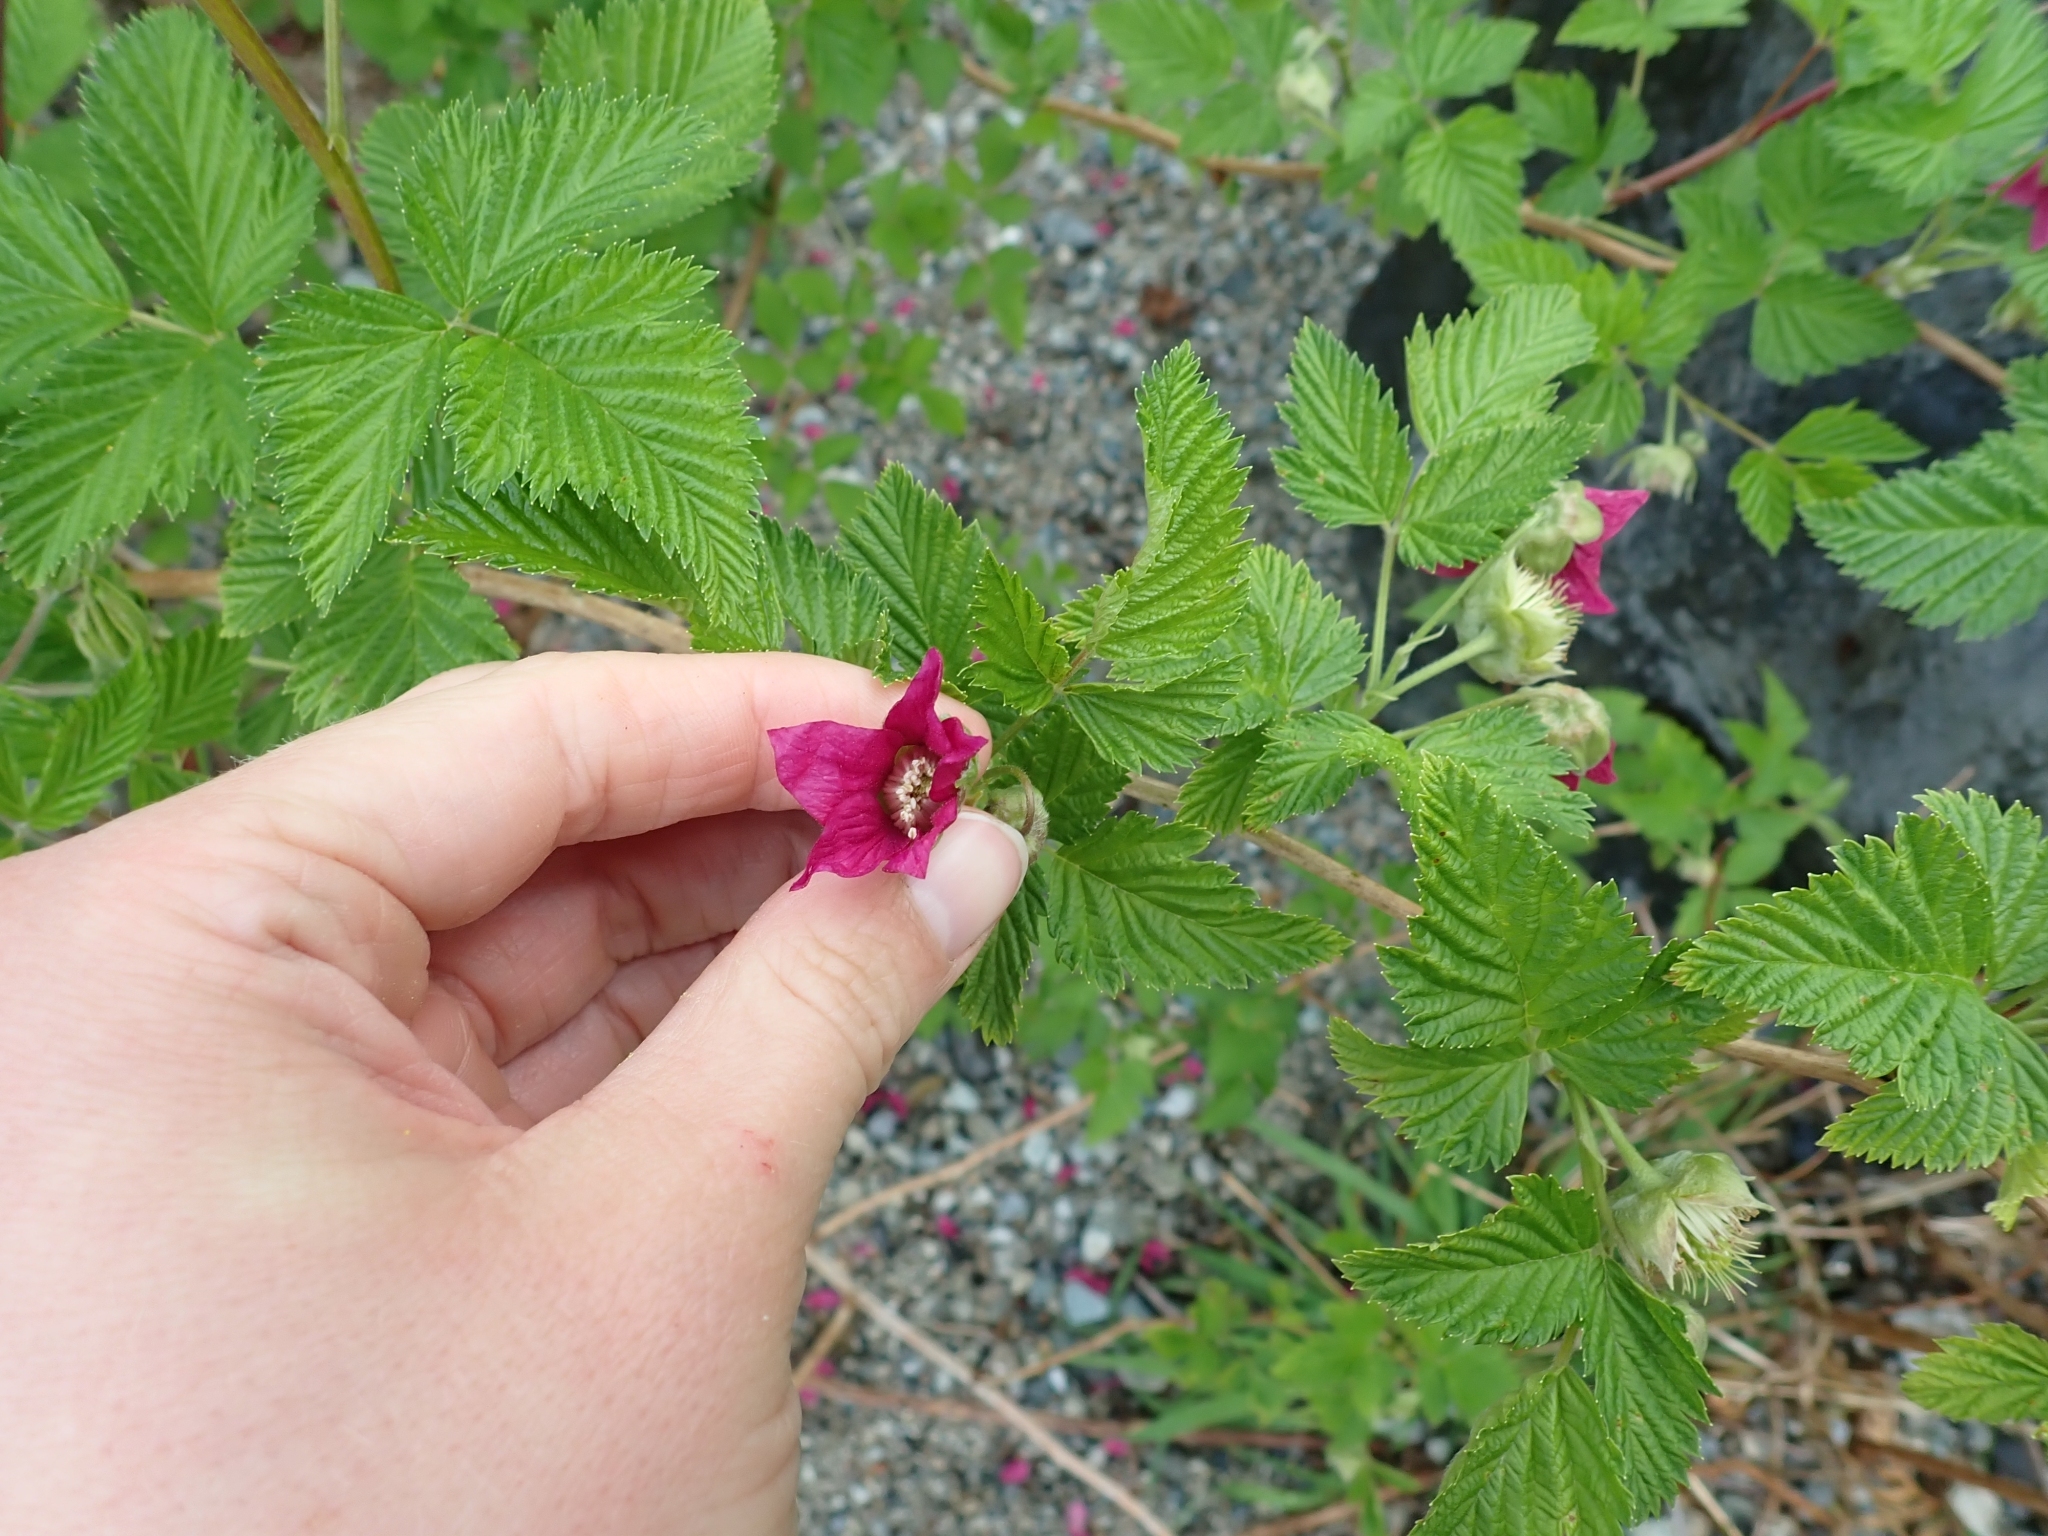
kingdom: Plantae
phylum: Tracheophyta
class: Magnoliopsida
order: Rosales
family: Rosaceae
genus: Rubus
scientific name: Rubus spectabilis
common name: Salmonberry
